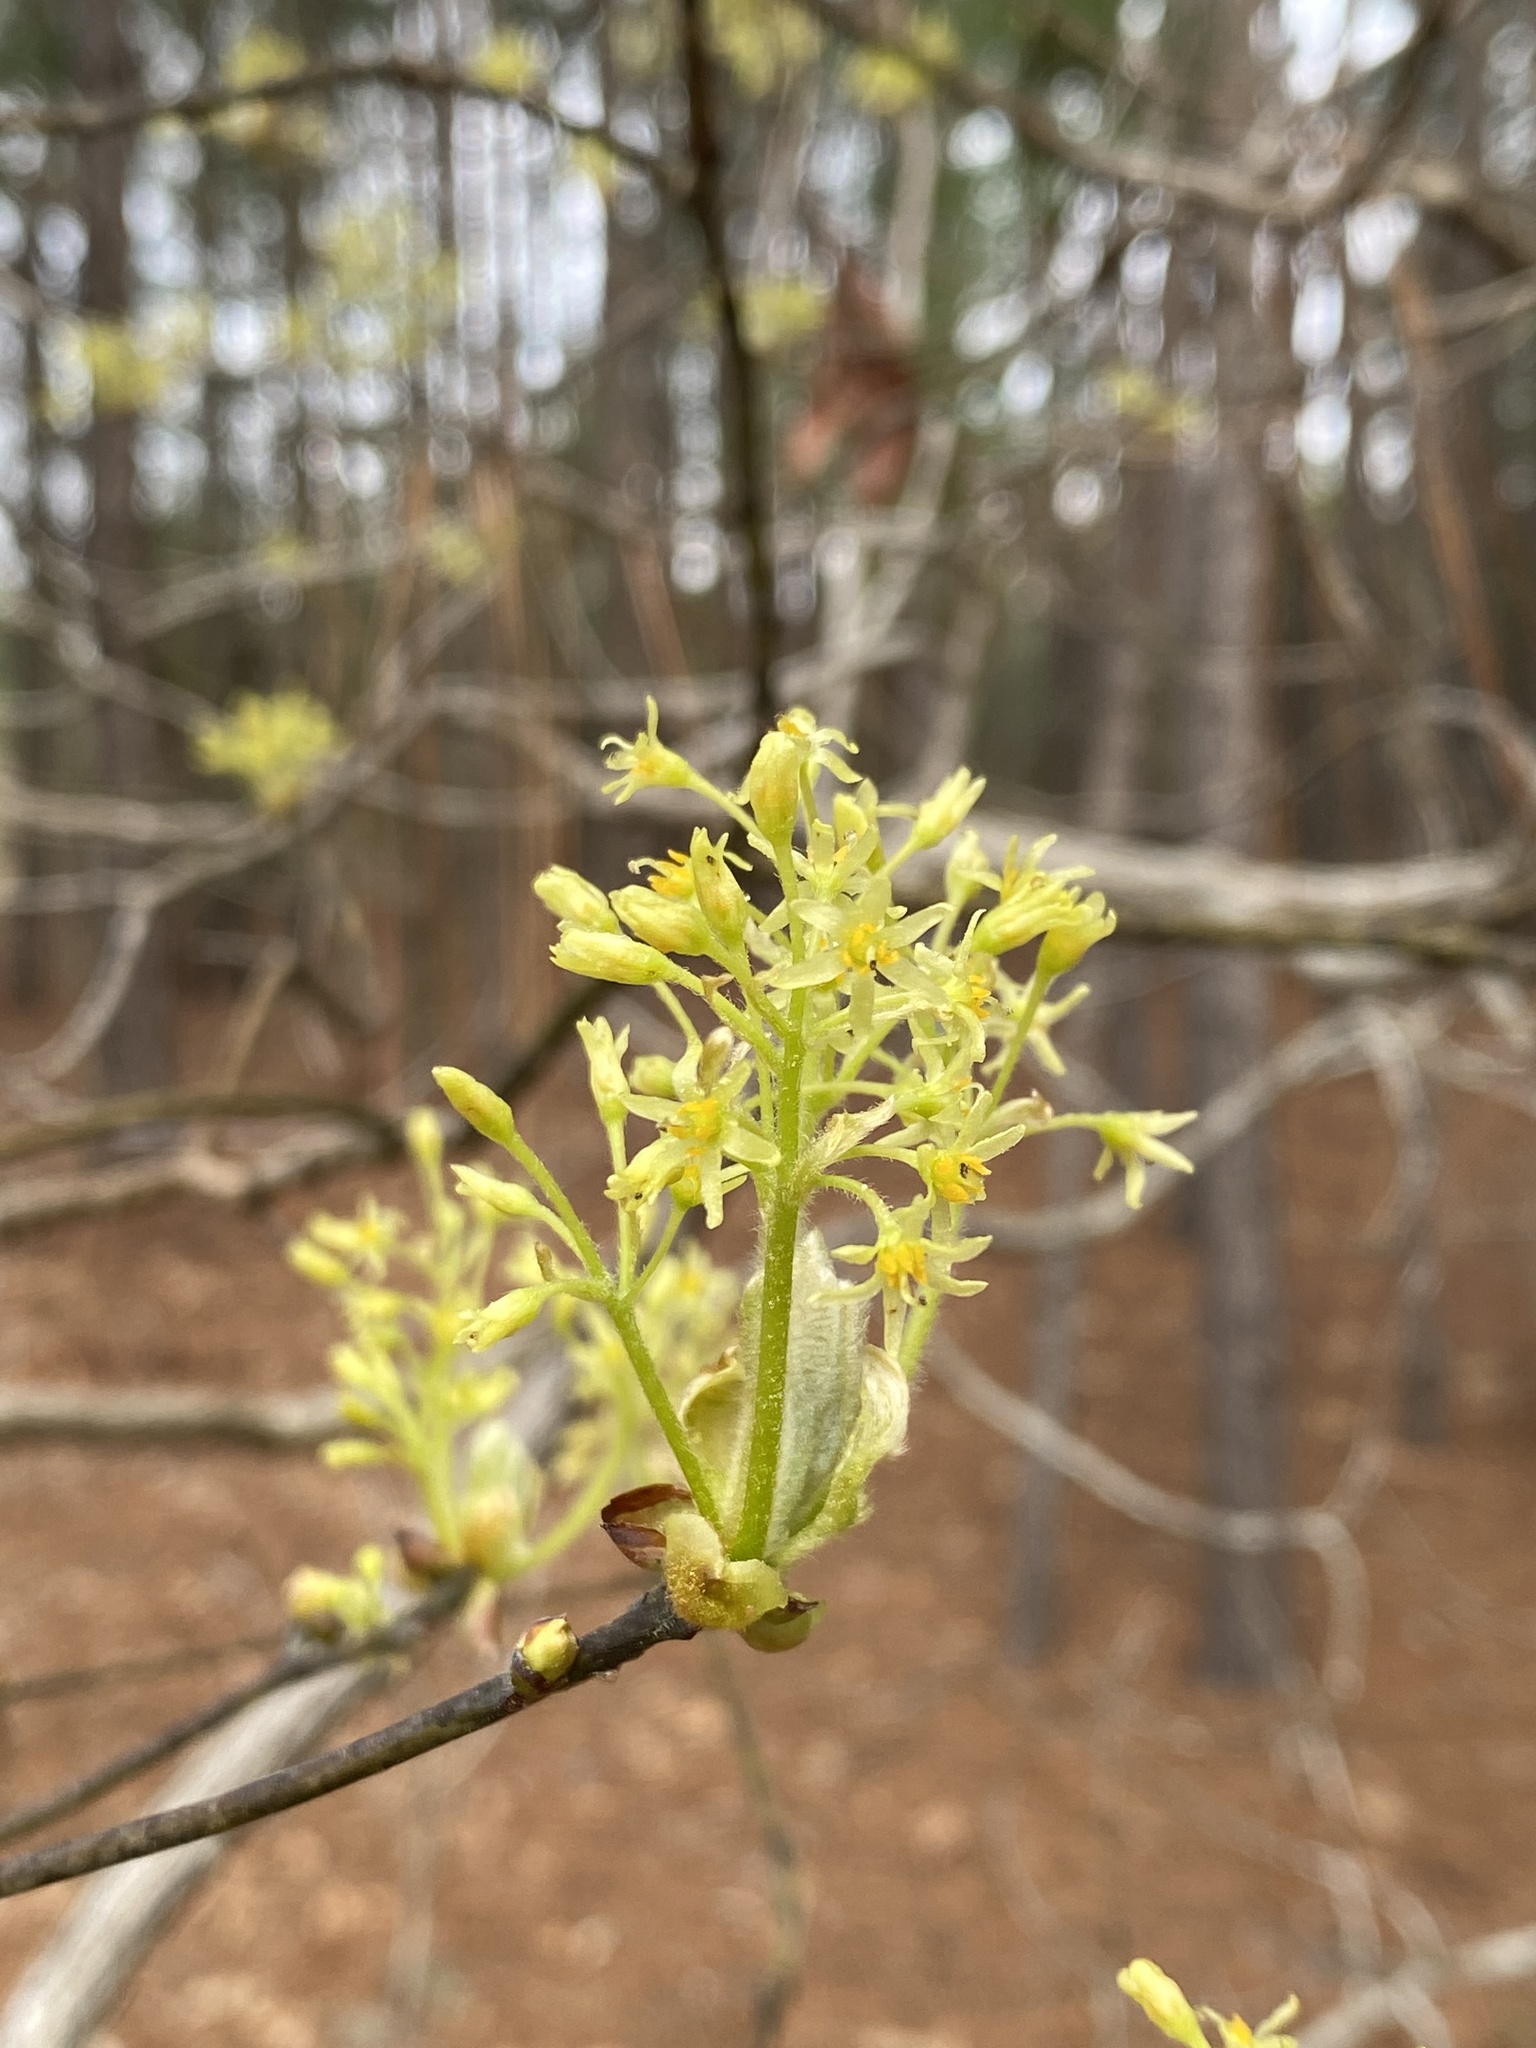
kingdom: Plantae
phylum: Tracheophyta
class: Magnoliopsida
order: Laurales
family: Lauraceae
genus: Sassafras
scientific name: Sassafras albidum
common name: Sassafras
